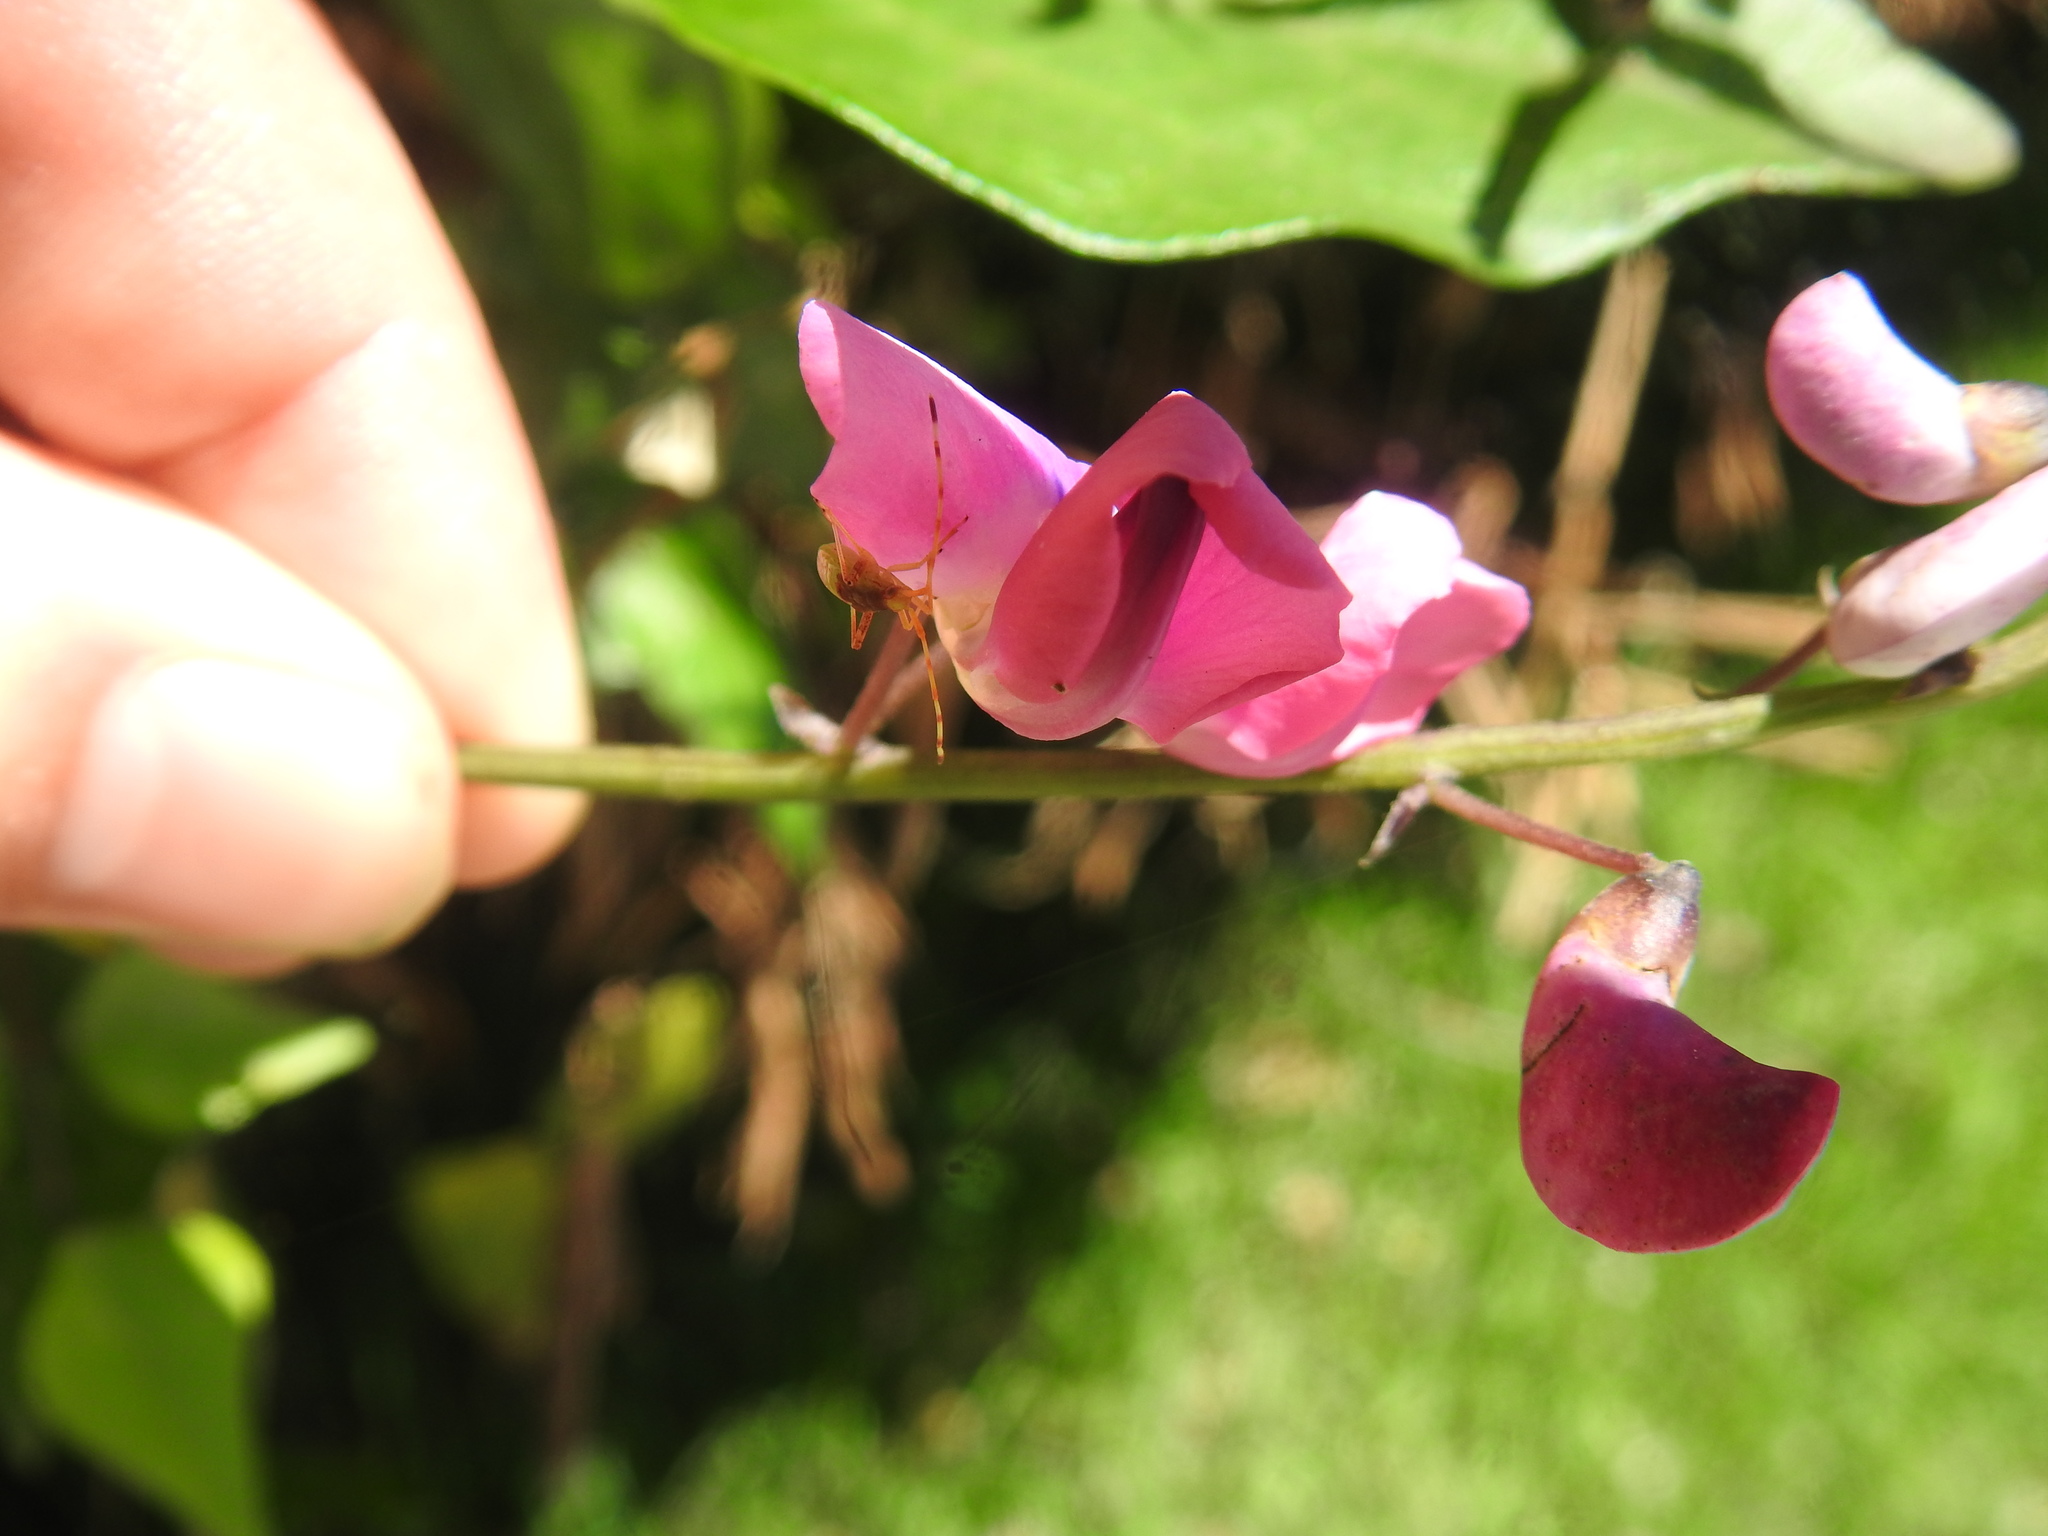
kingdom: Plantae
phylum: Tracheophyta
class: Magnoliopsida
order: Fabales
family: Fabaceae
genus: Dipogon
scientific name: Dipogon lignosus
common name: Okie bean
